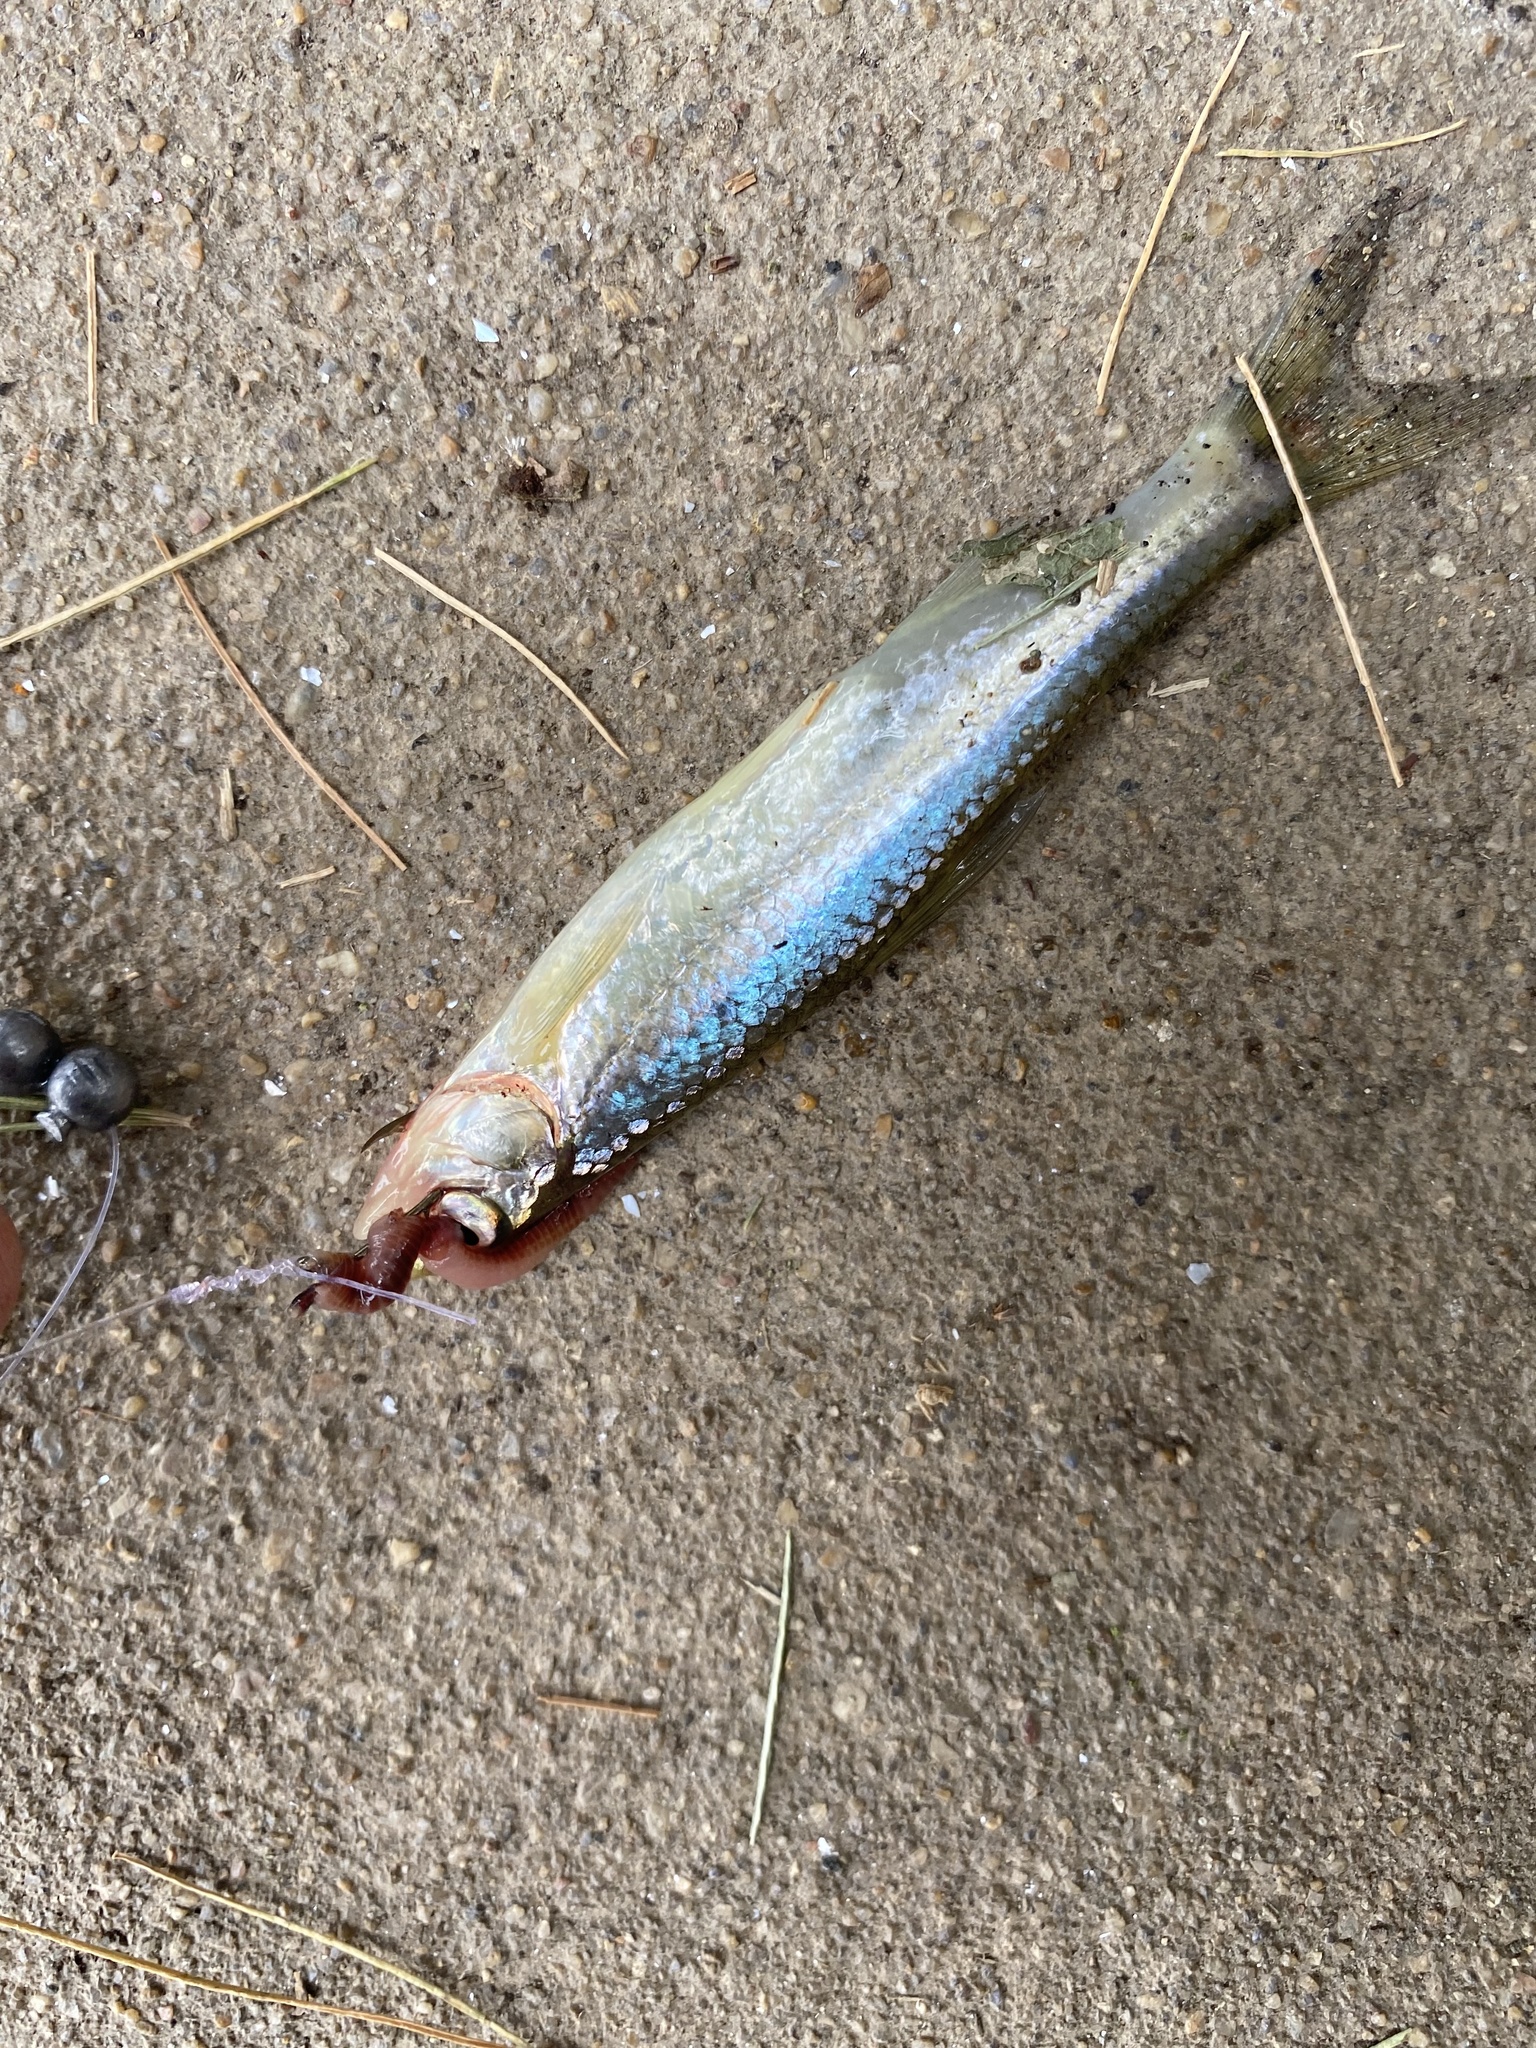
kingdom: Animalia
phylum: Chordata
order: Cypriniformes
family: Cyprinidae
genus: Notropis
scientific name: Notropis
